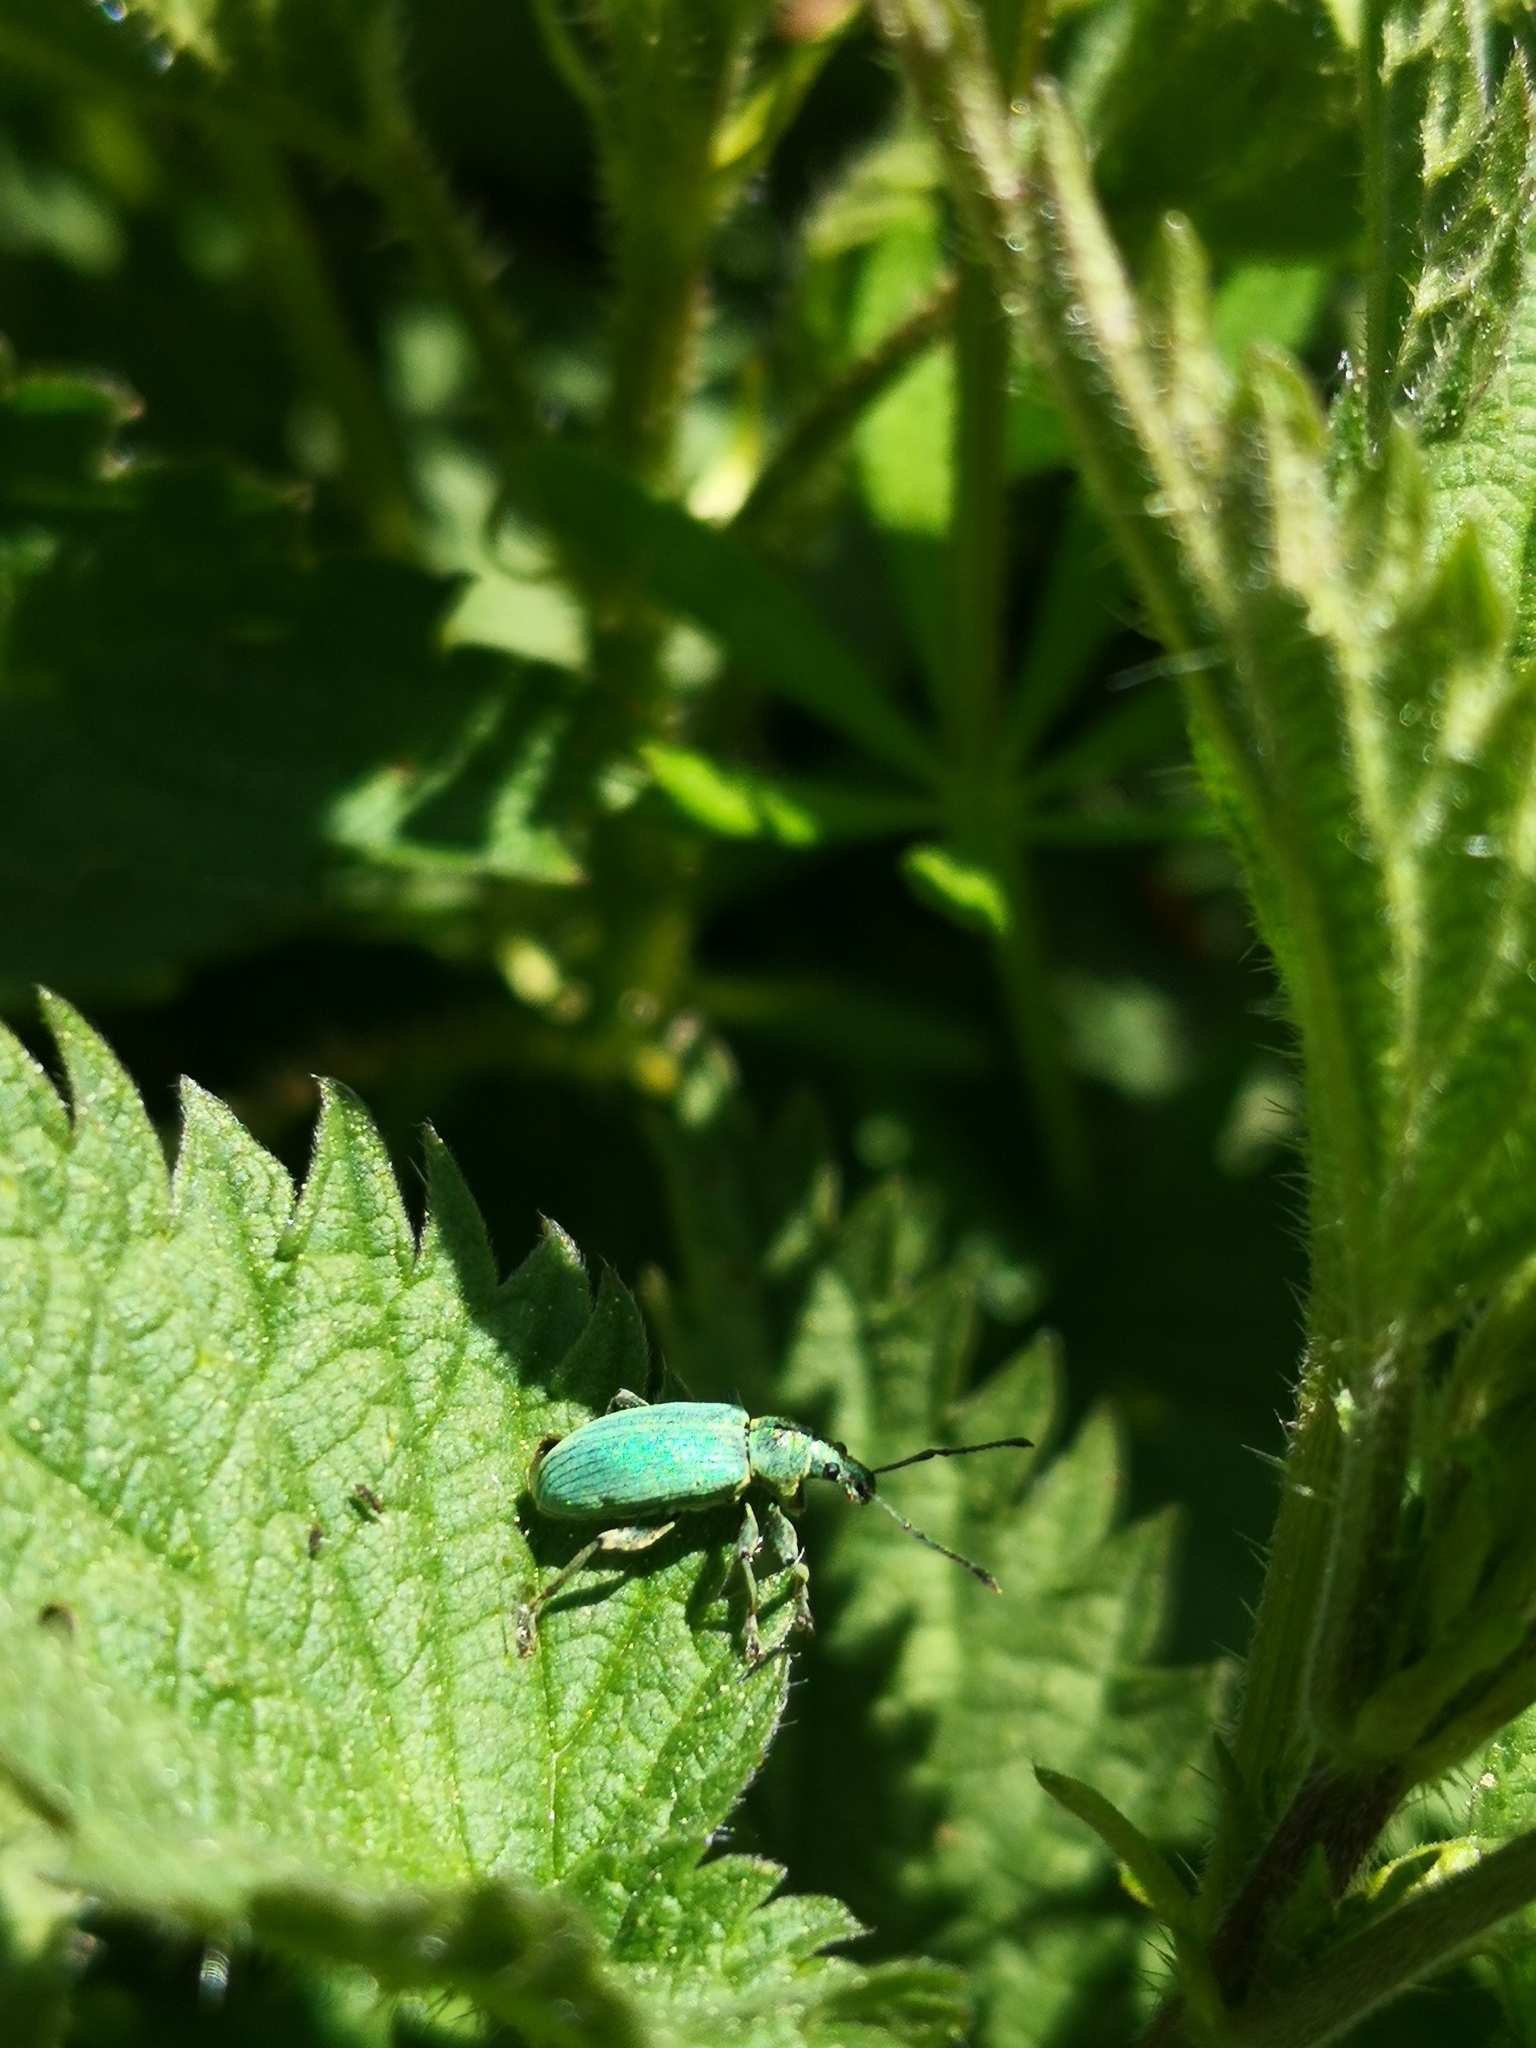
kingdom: Animalia
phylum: Arthropoda
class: Insecta
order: Coleoptera
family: Curculionidae
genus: Phyllobius
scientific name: Phyllobius pomaceus
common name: Green nettle weevil
